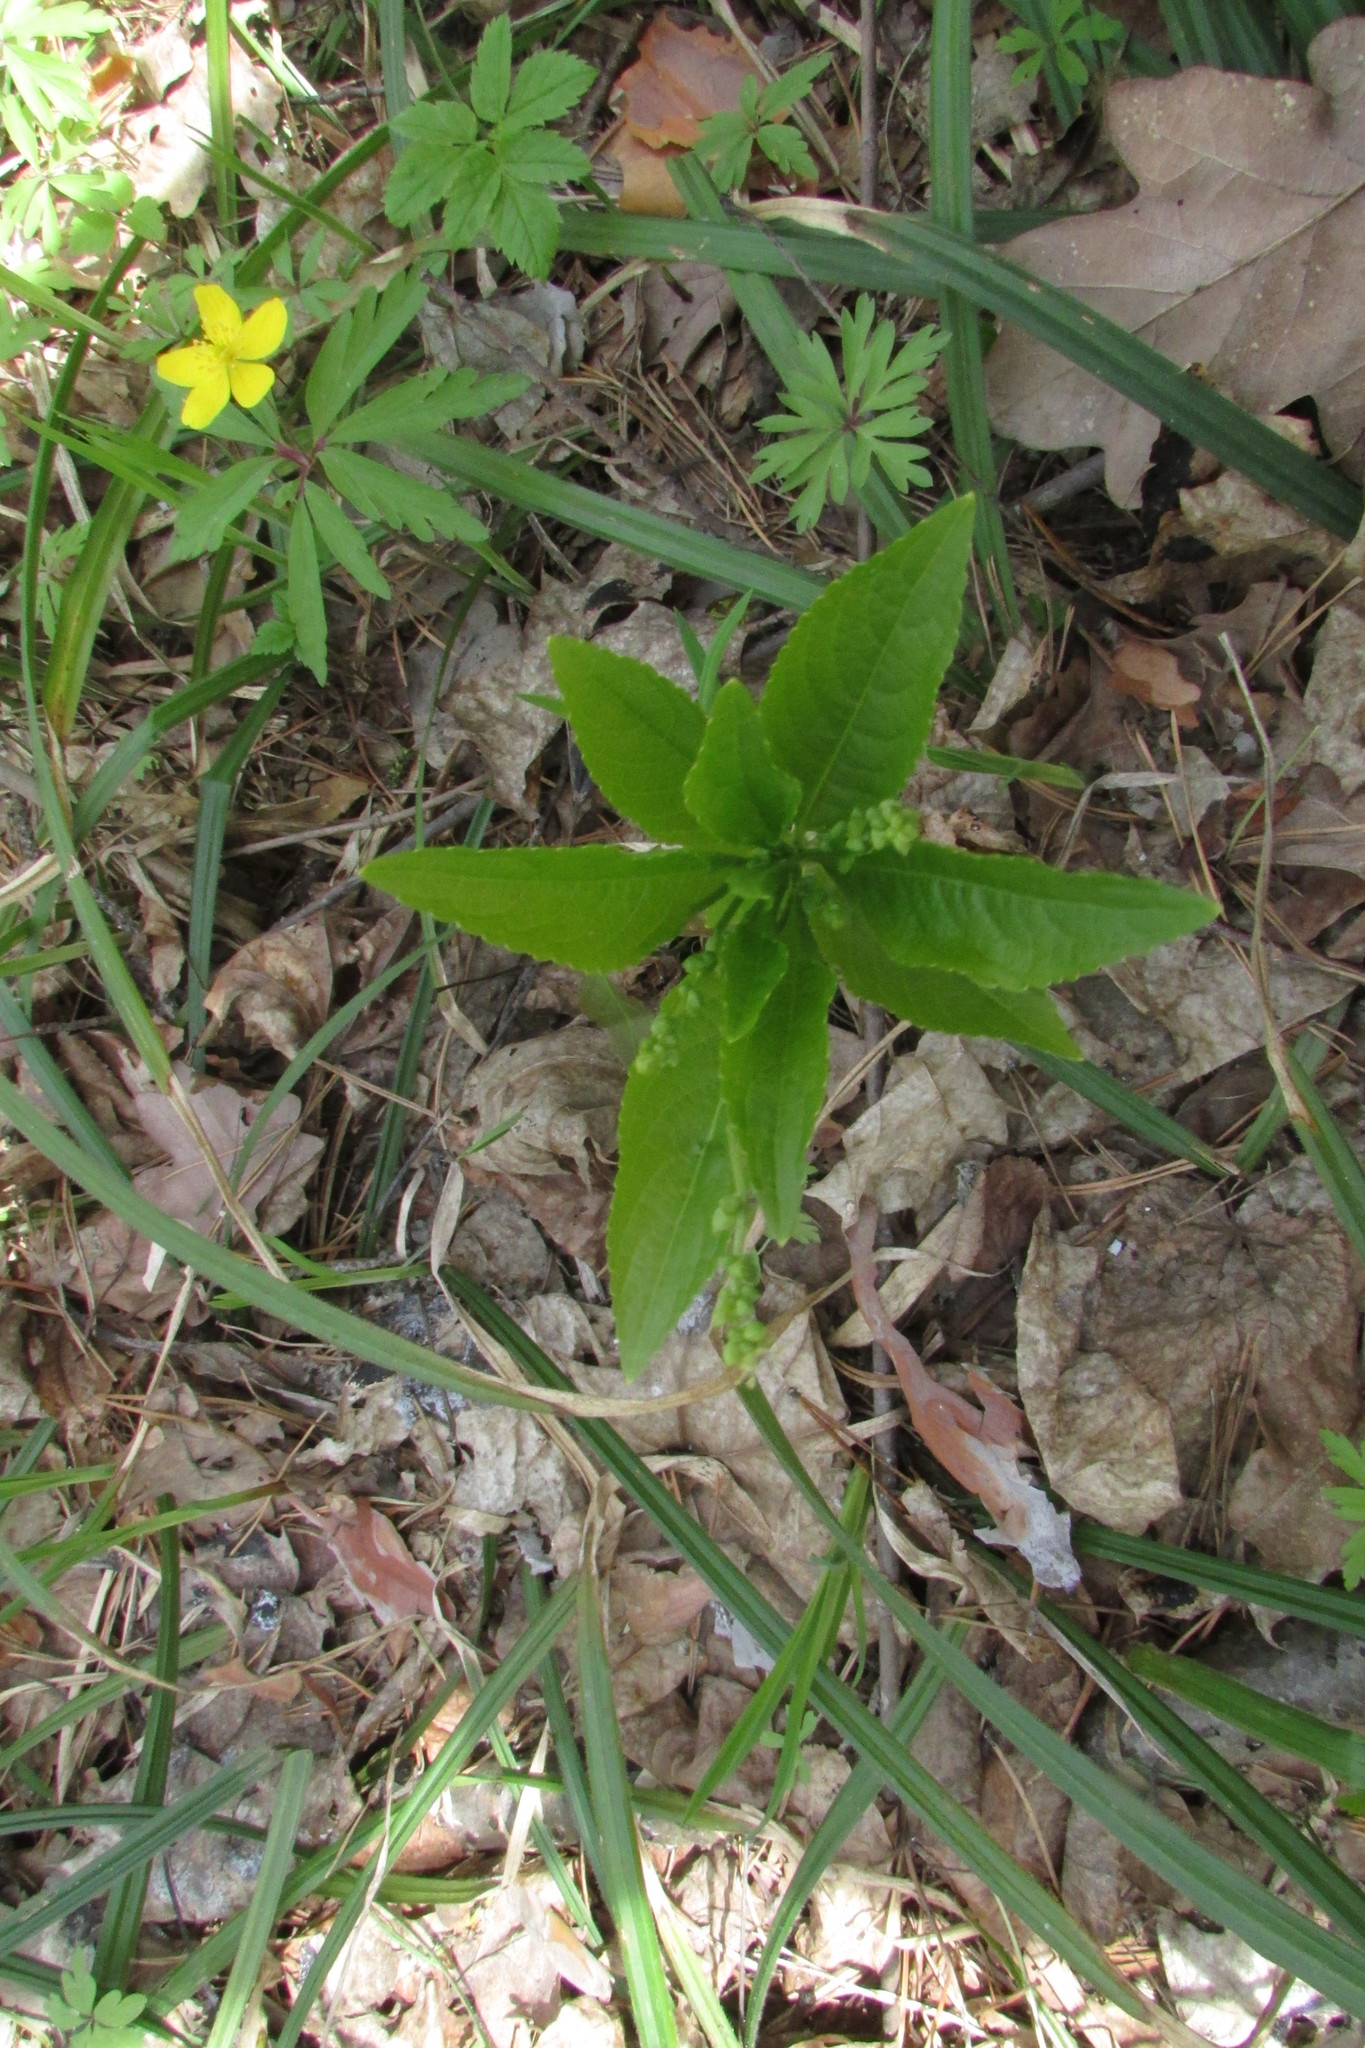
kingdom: Plantae
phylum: Tracheophyta
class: Magnoliopsida
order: Malpighiales
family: Euphorbiaceae
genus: Mercurialis
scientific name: Mercurialis perennis
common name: Dog mercury
